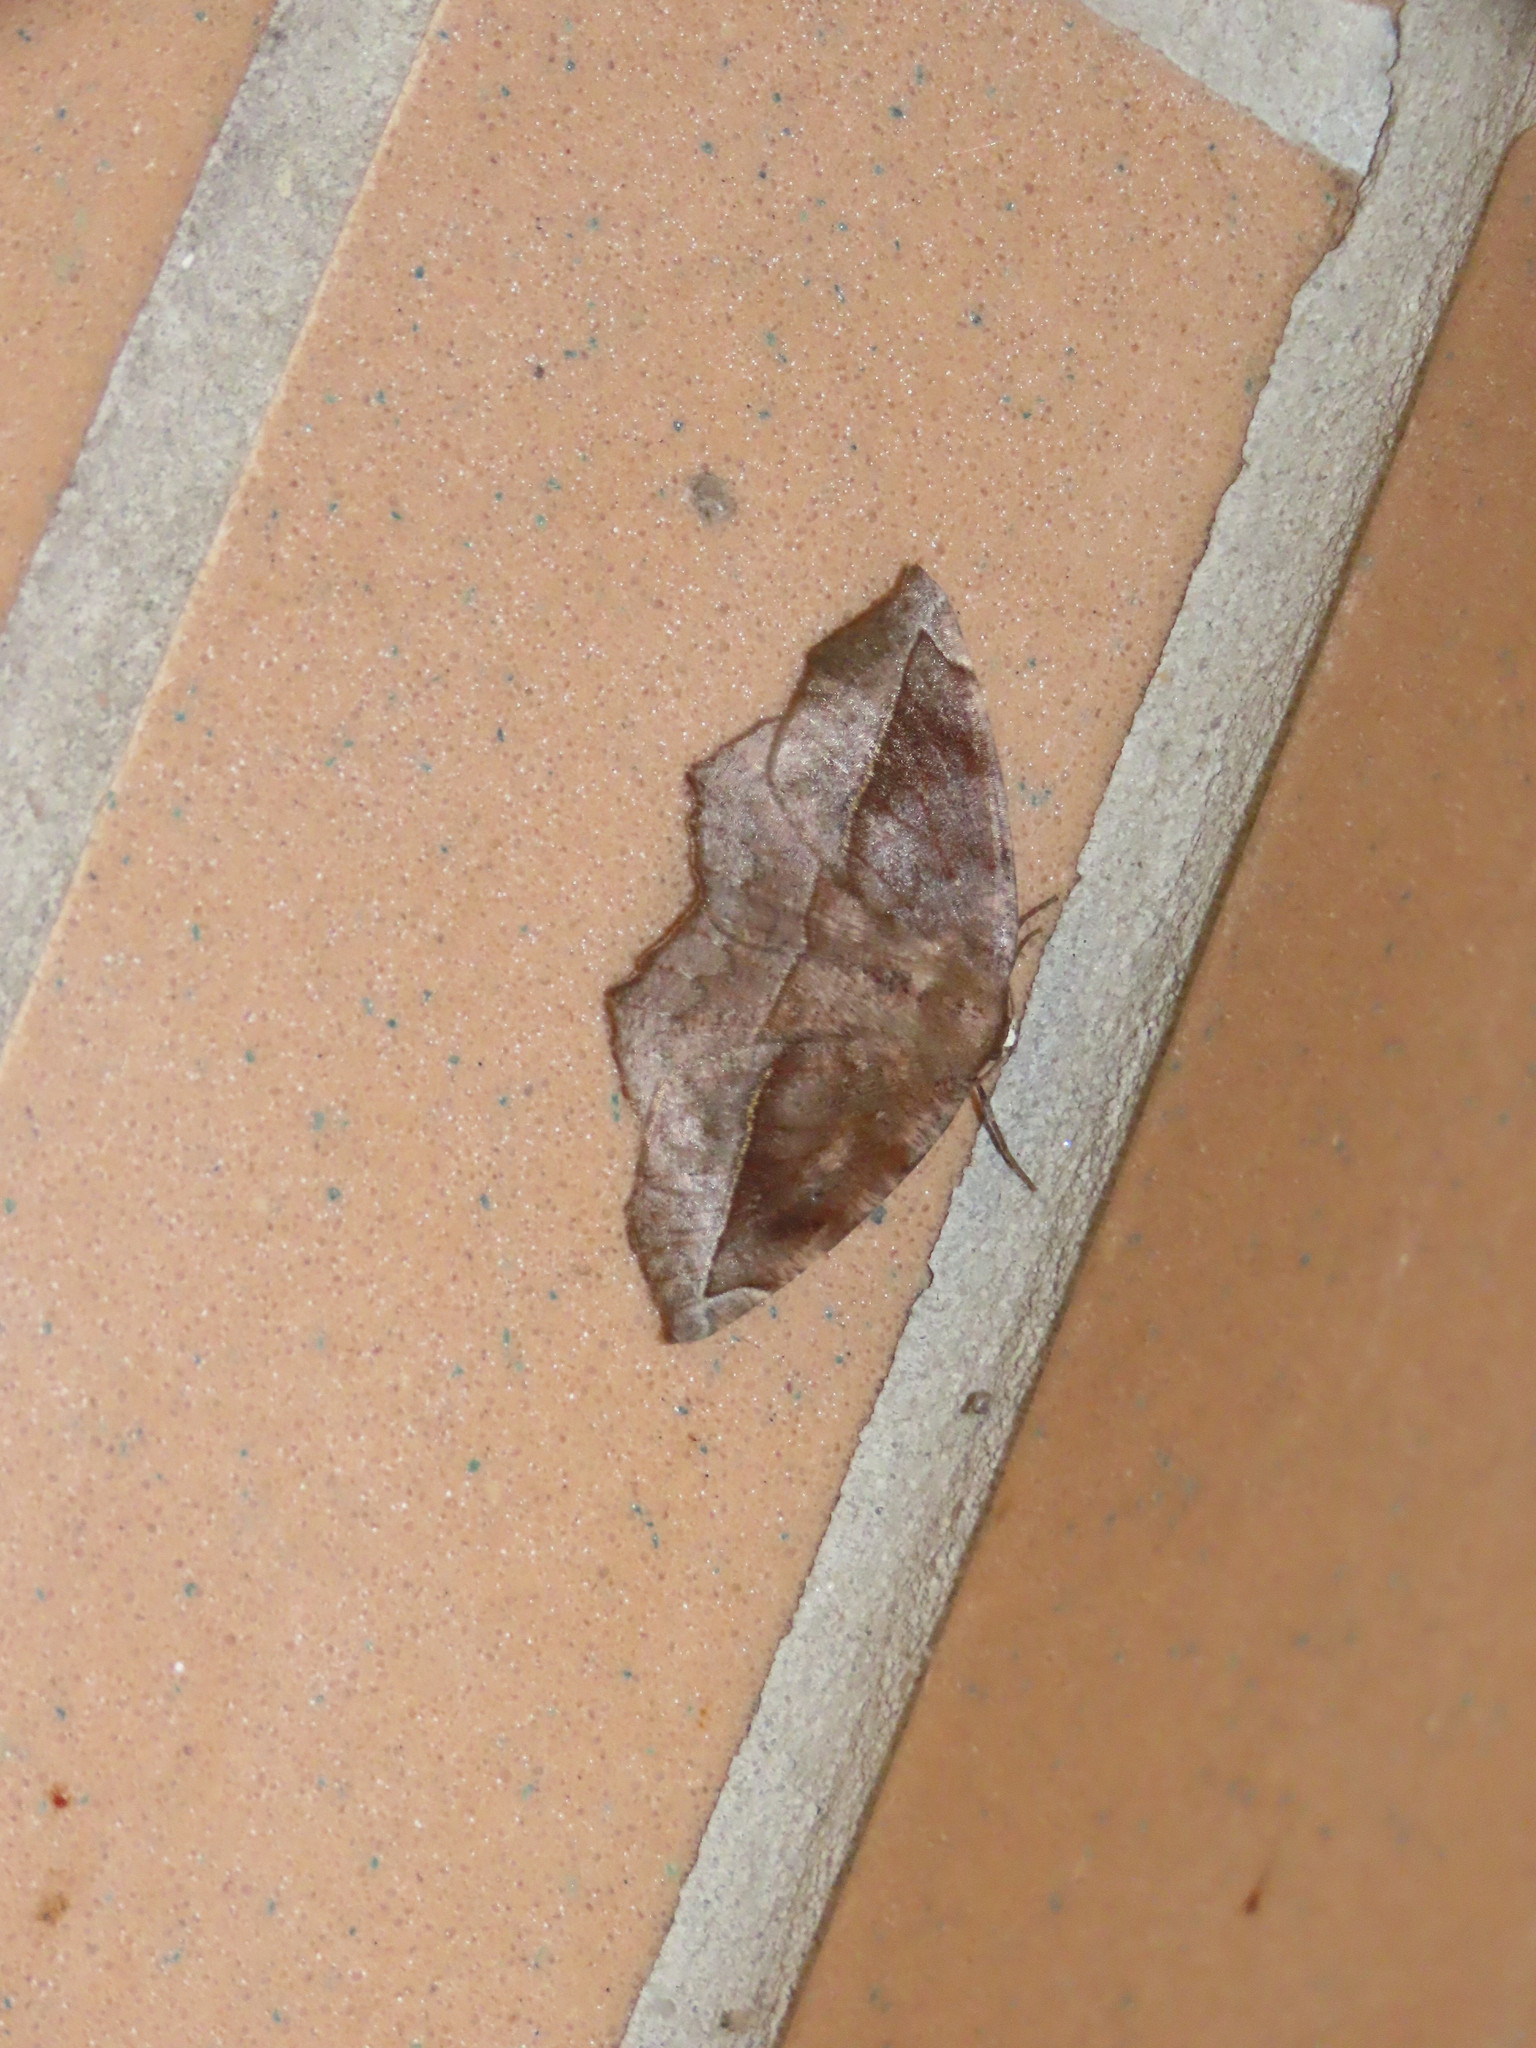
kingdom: Animalia
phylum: Arthropoda
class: Insecta
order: Lepidoptera
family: Geometridae
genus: Eutrapela
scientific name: Eutrapela clemataria
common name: Curved-toothed geometer
